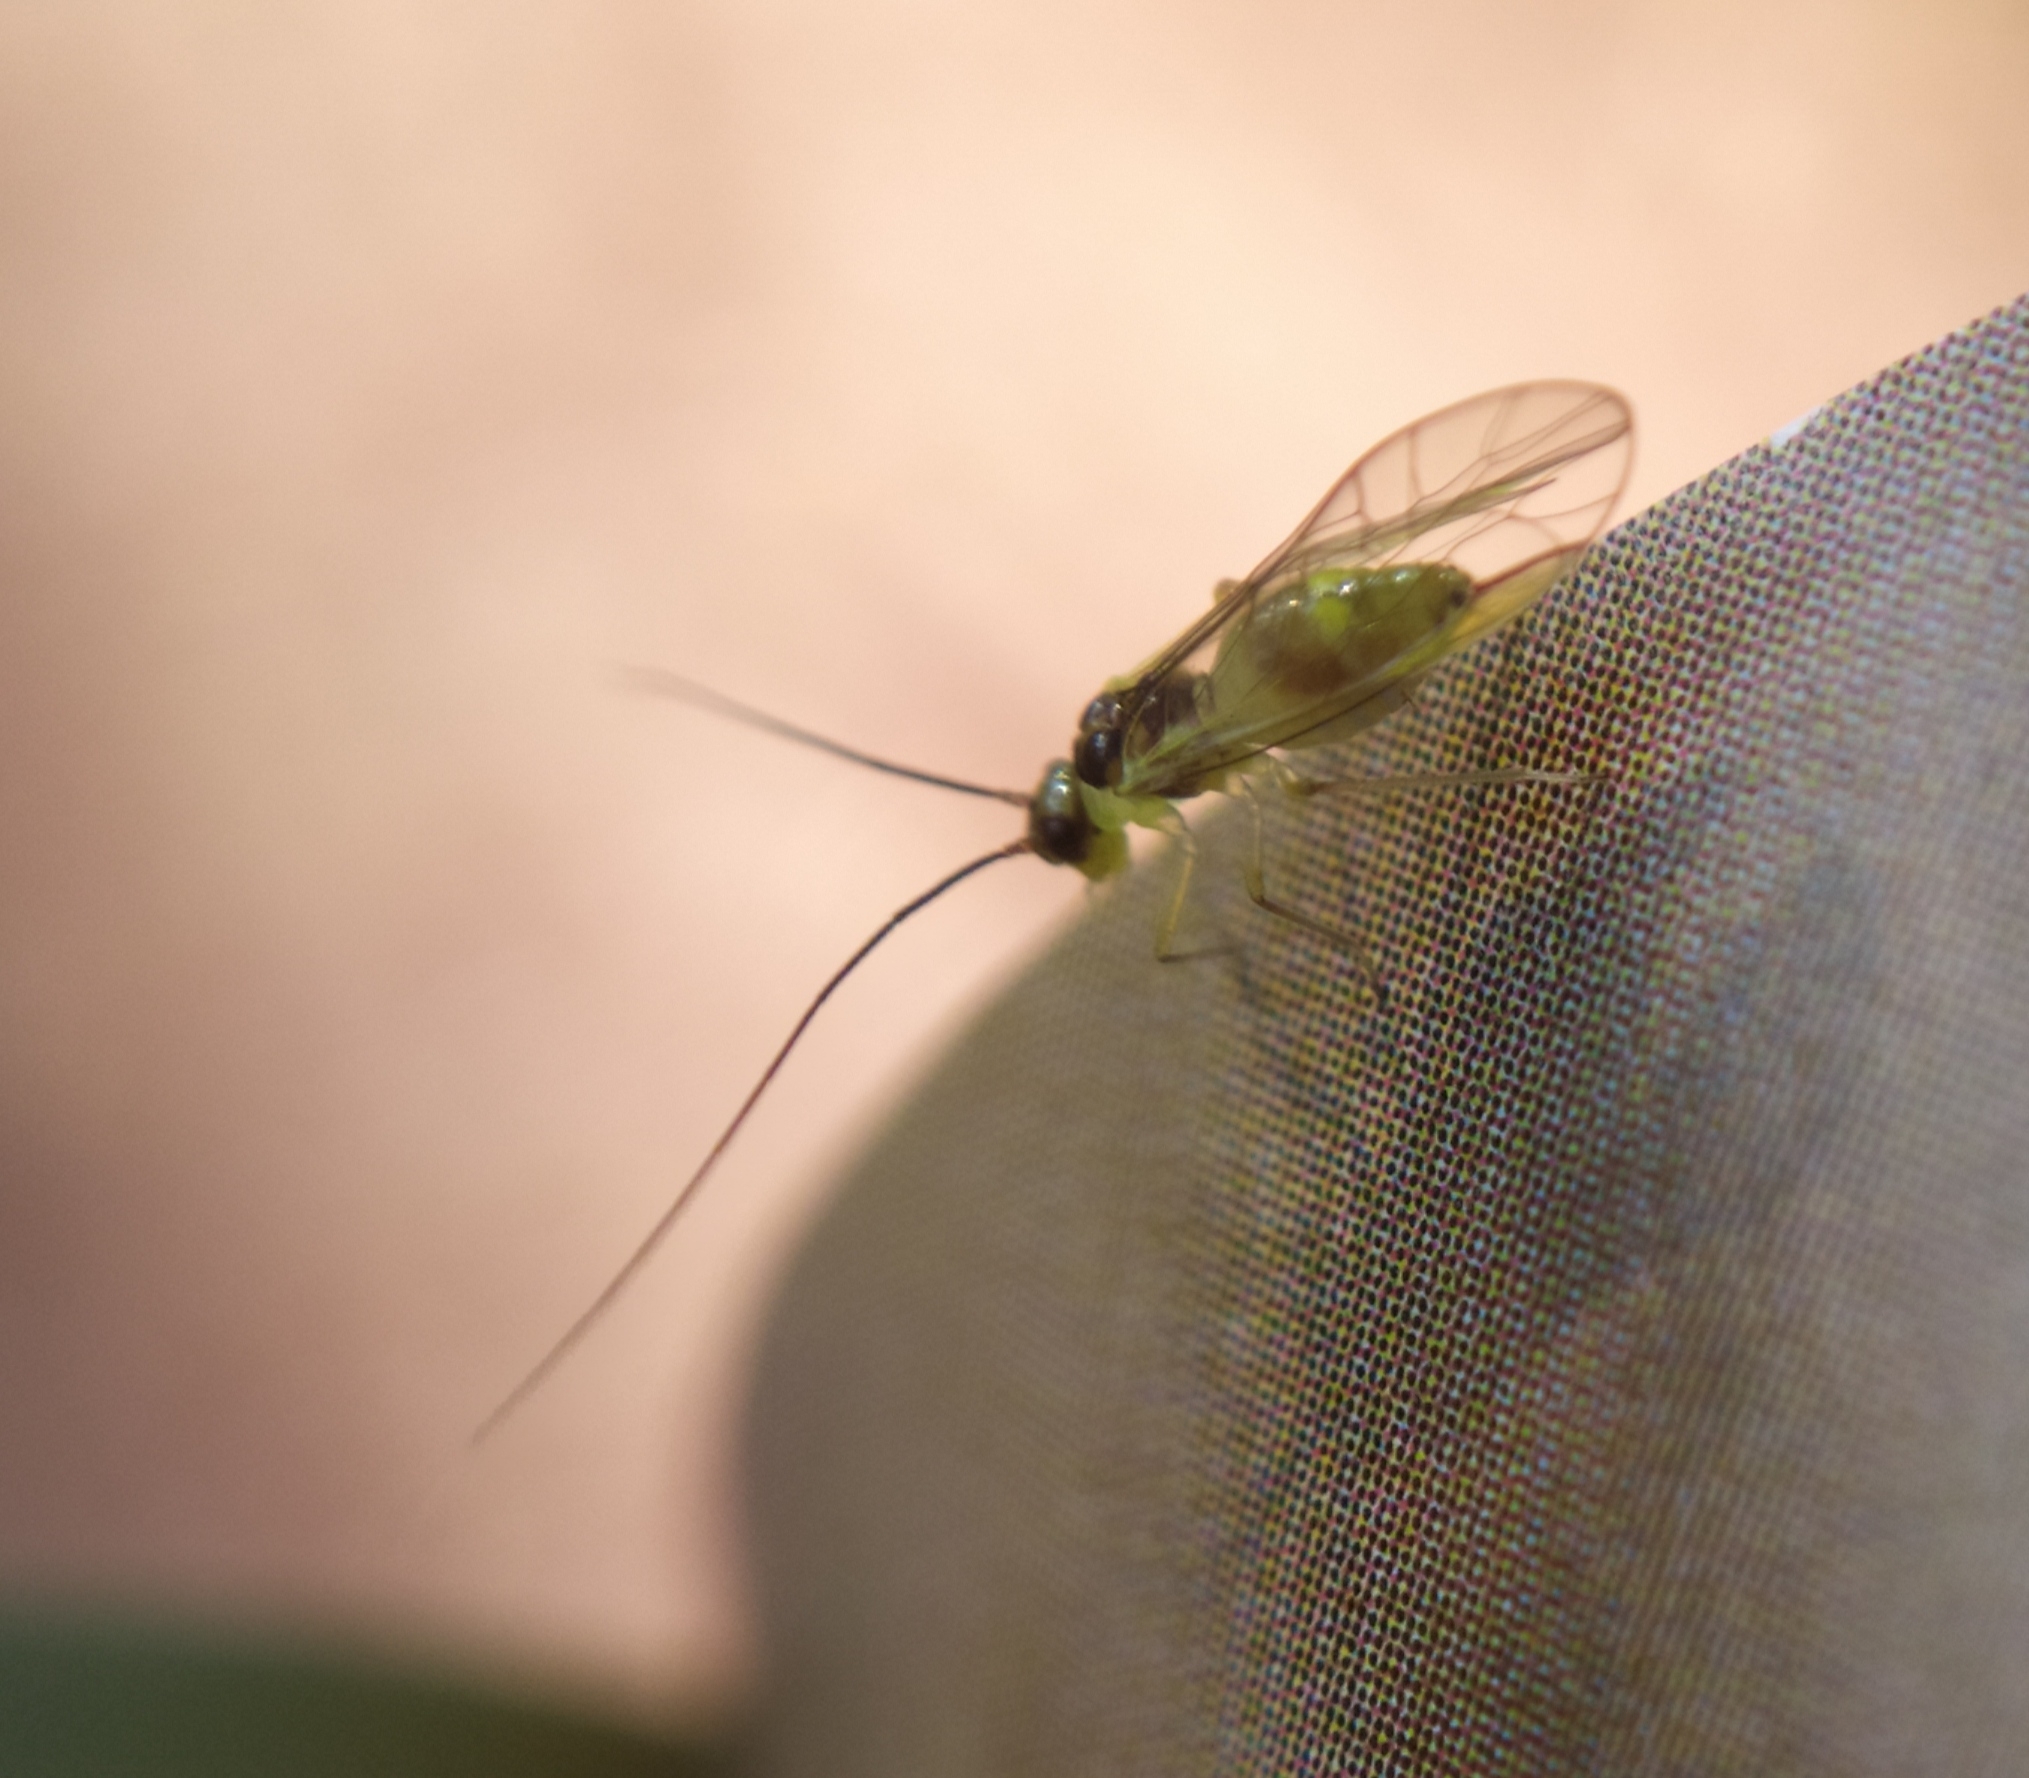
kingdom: Animalia
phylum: Arthropoda
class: Insecta
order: Psocodea
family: Stenopsocidae
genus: Stenopsocus
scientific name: Stenopsocus stigmaticus
